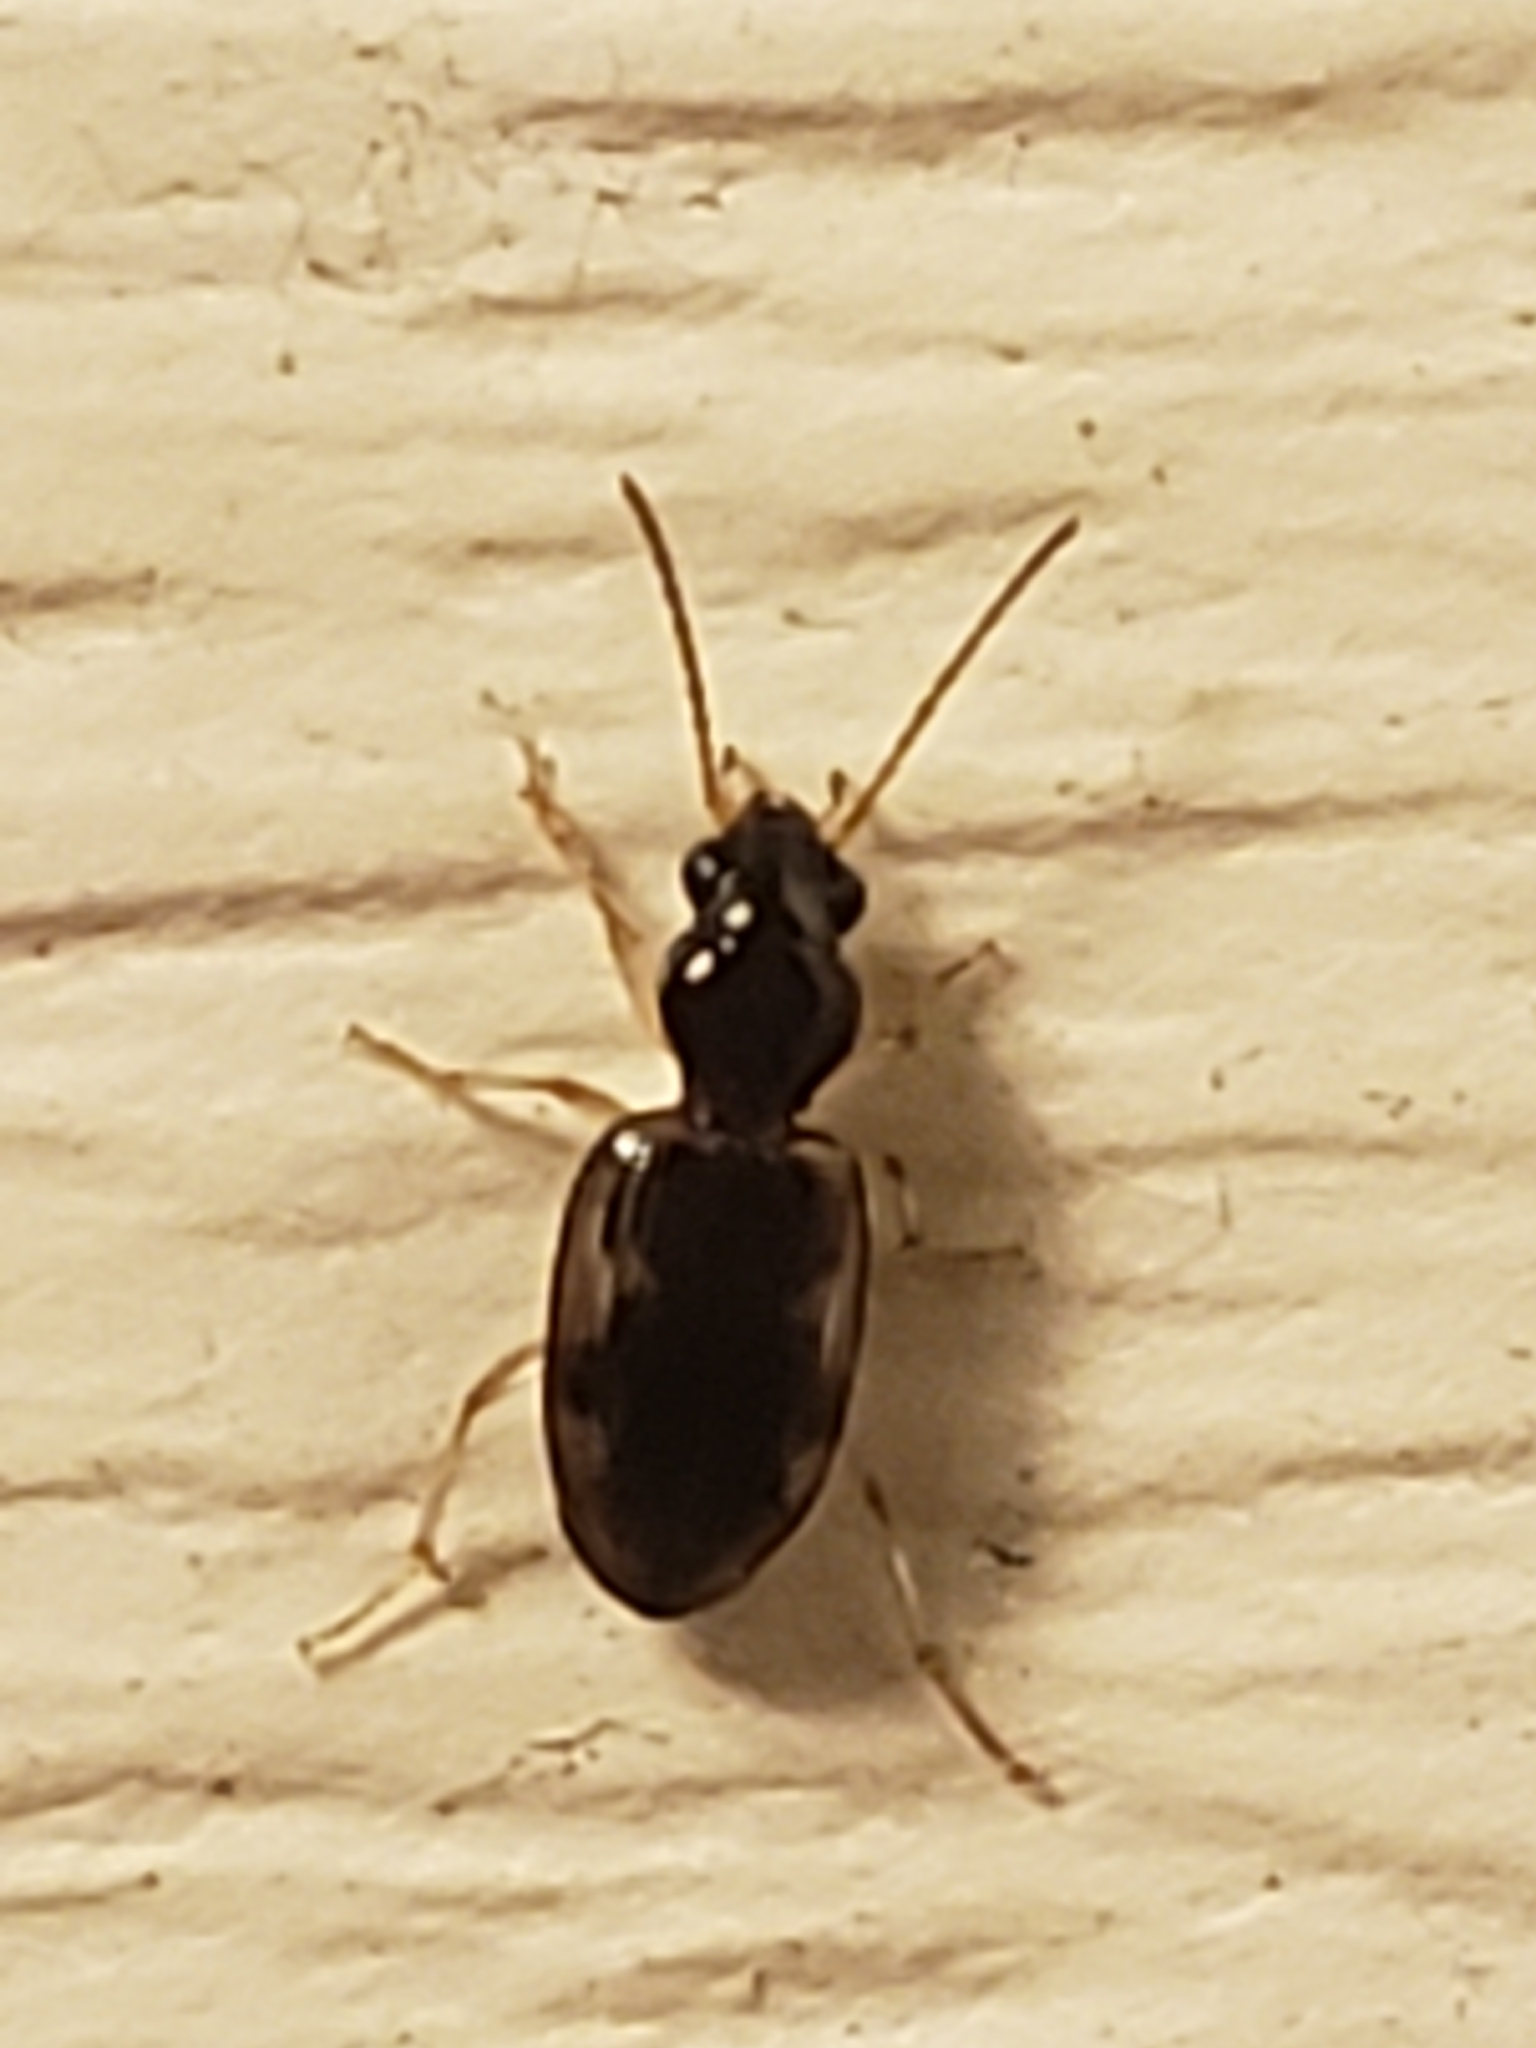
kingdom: Animalia
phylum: Arthropoda
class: Insecta
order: Coleoptera
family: Carabidae
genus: Bembidion
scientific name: Bembidion affine
